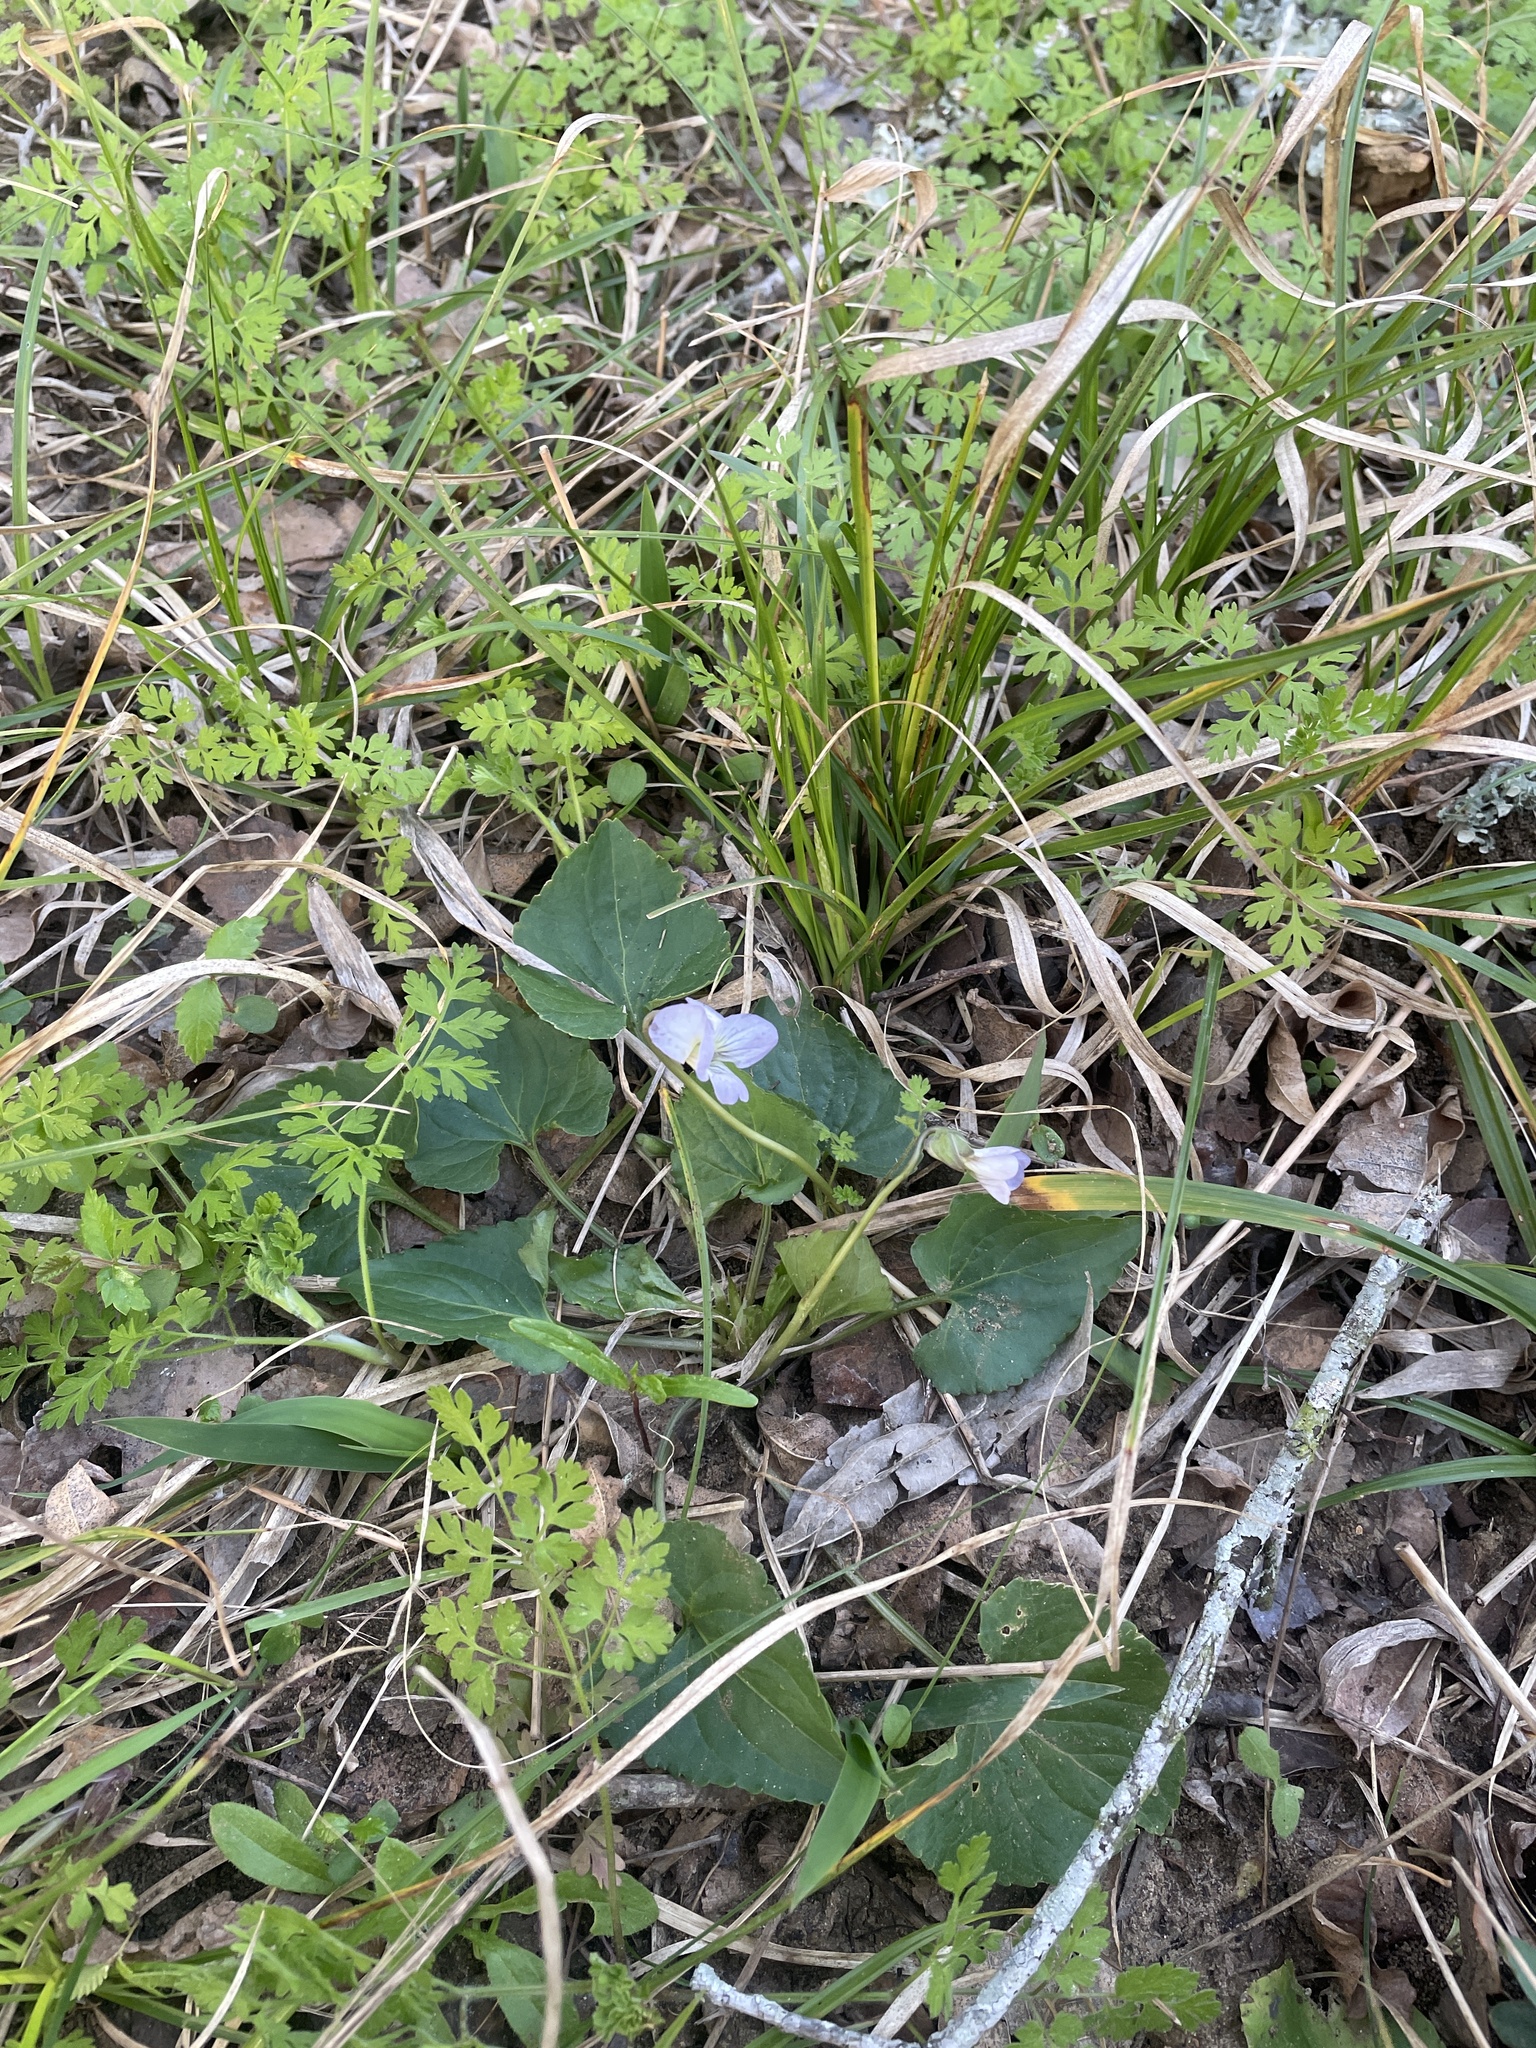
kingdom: Plantae
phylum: Tracheophyta
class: Magnoliopsida
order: Malpighiales
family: Violaceae
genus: Viola
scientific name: Viola missouriensis
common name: Missouri violet
